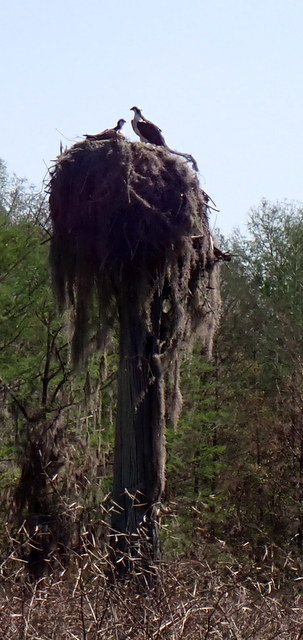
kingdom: Animalia
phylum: Chordata
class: Aves
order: Accipitriformes
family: Pandionidae
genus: Pandion
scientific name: Pandion haliaetus
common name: Osprey
